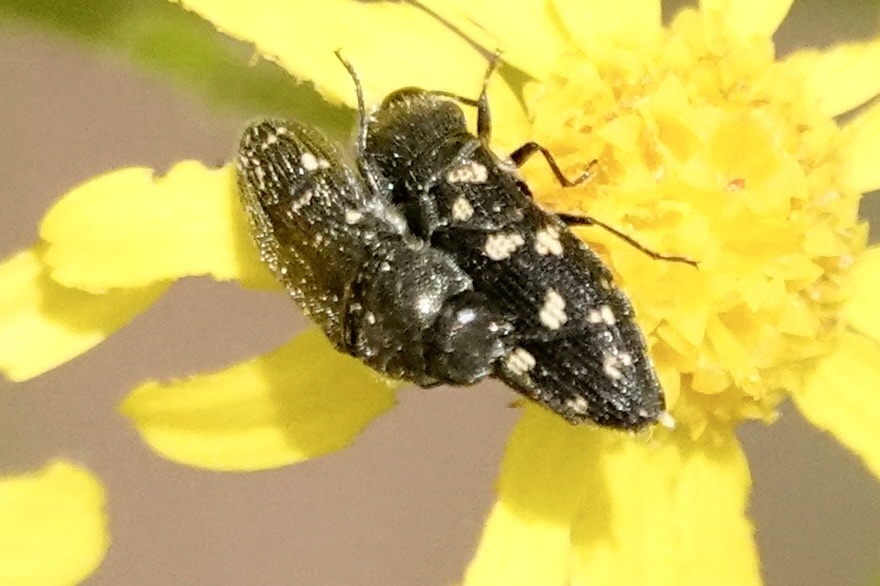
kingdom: Animalia
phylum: Arthropoda
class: Insecta
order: Coleoptera
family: Buprestidae
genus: Acmaeodera
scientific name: Acmaeodera tubulus
